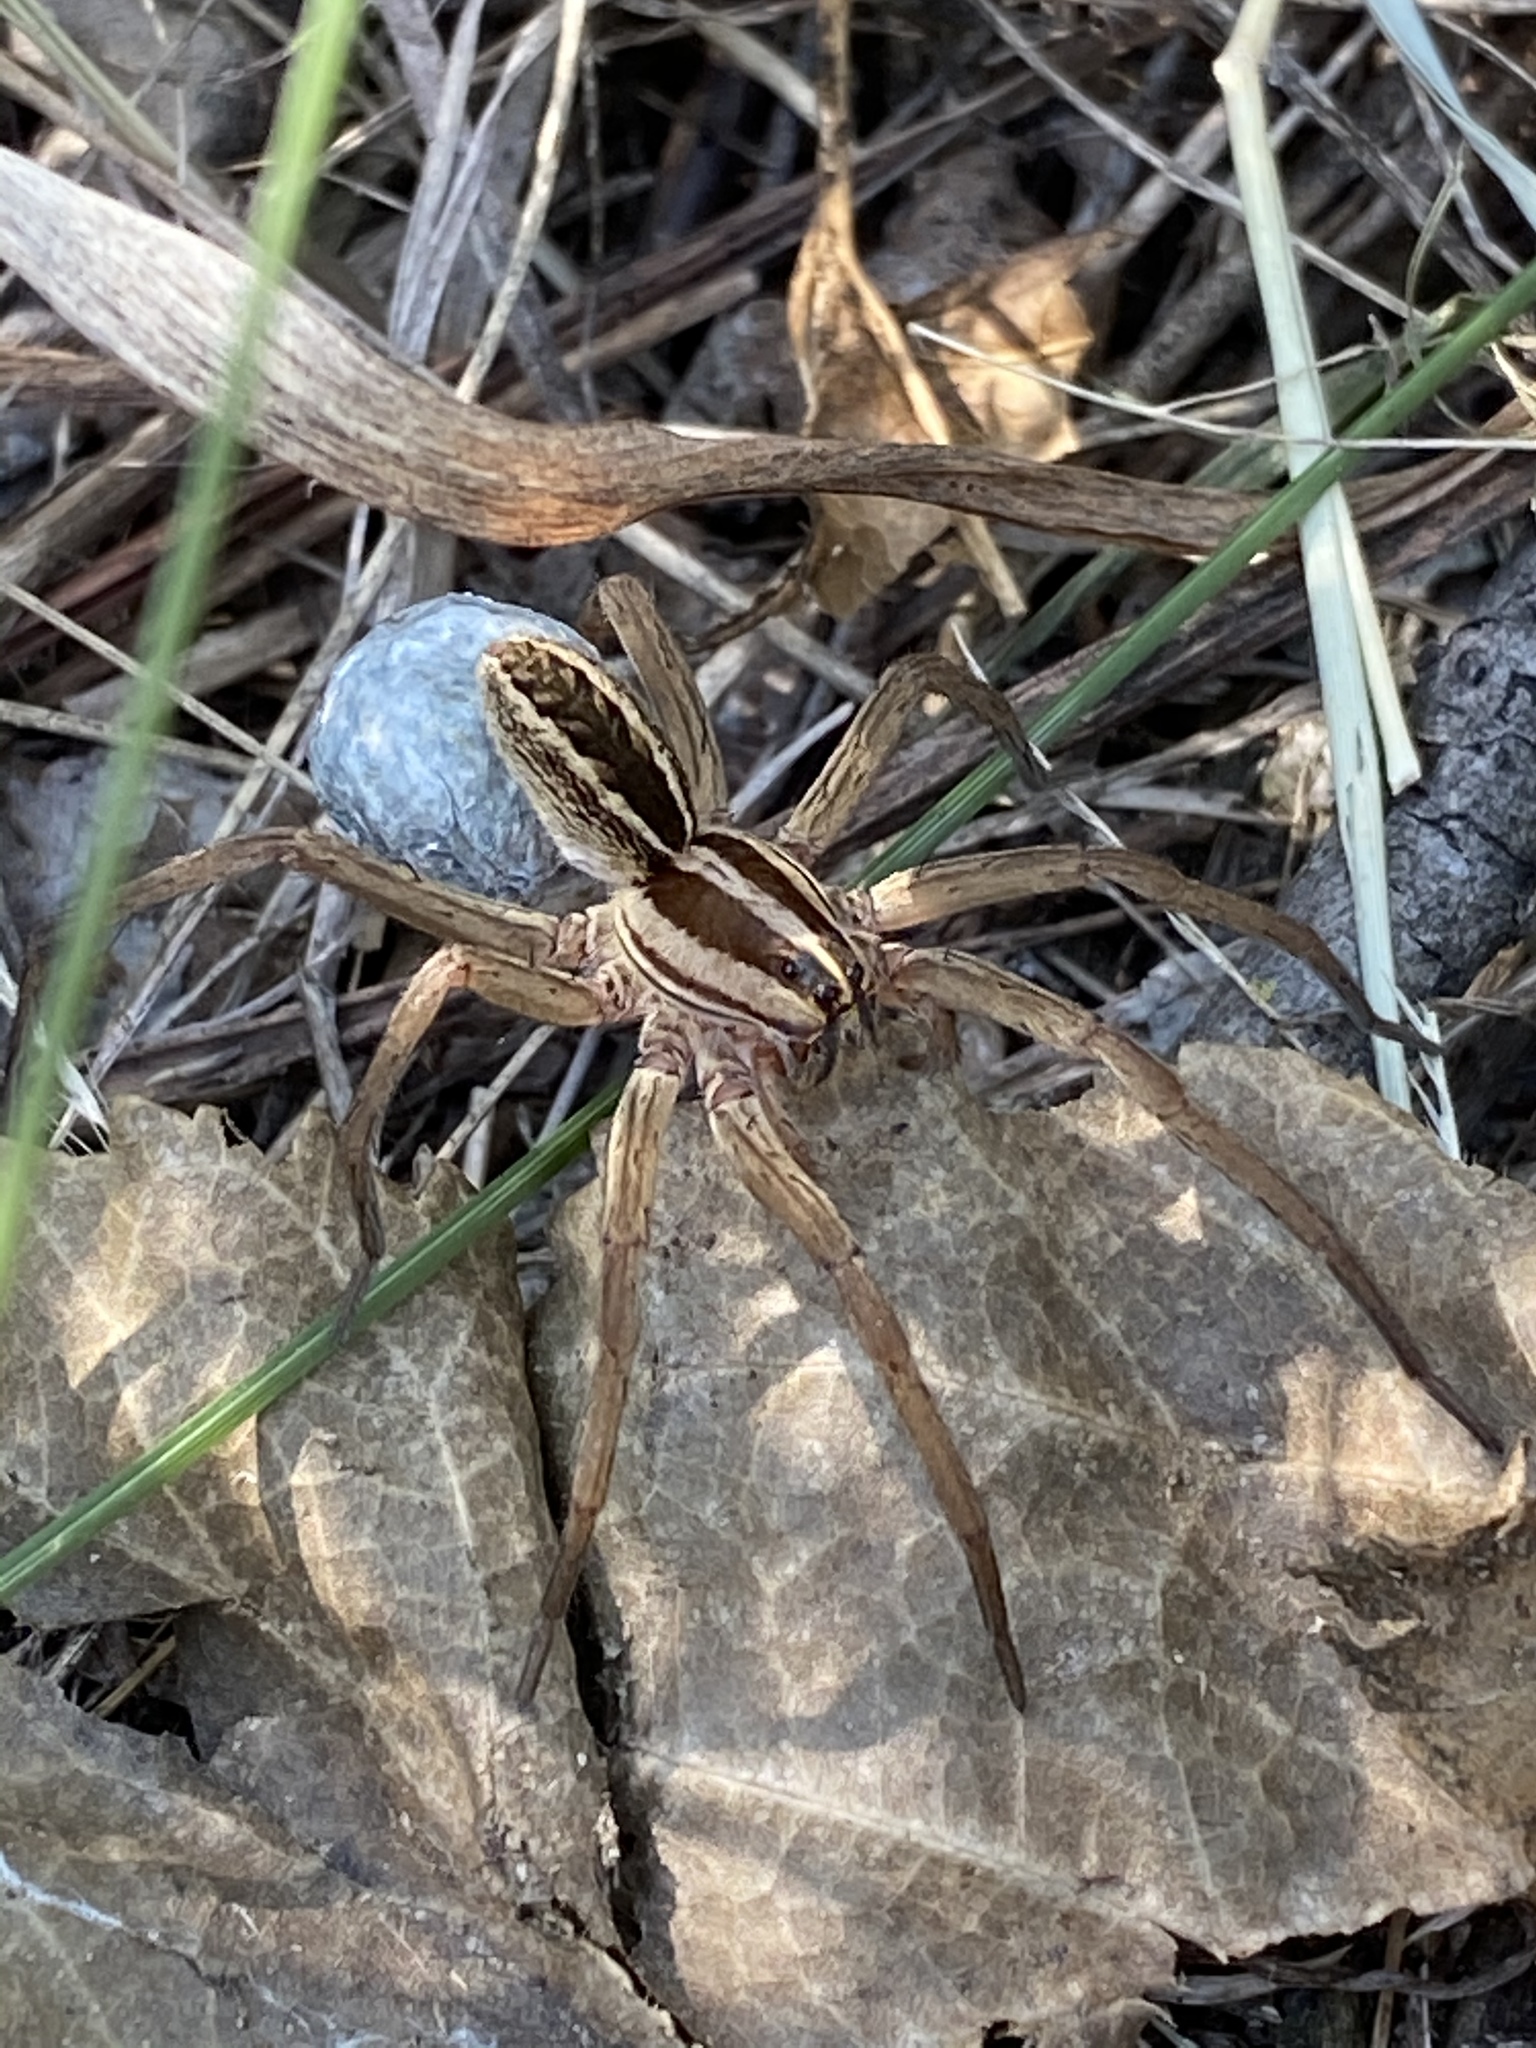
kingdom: Animalia
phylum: Arthropoda
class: Arachnida
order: Araneae
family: Lycosidae
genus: Rabidosa
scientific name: Rabidosa rabida
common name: Rabid wolf spider
